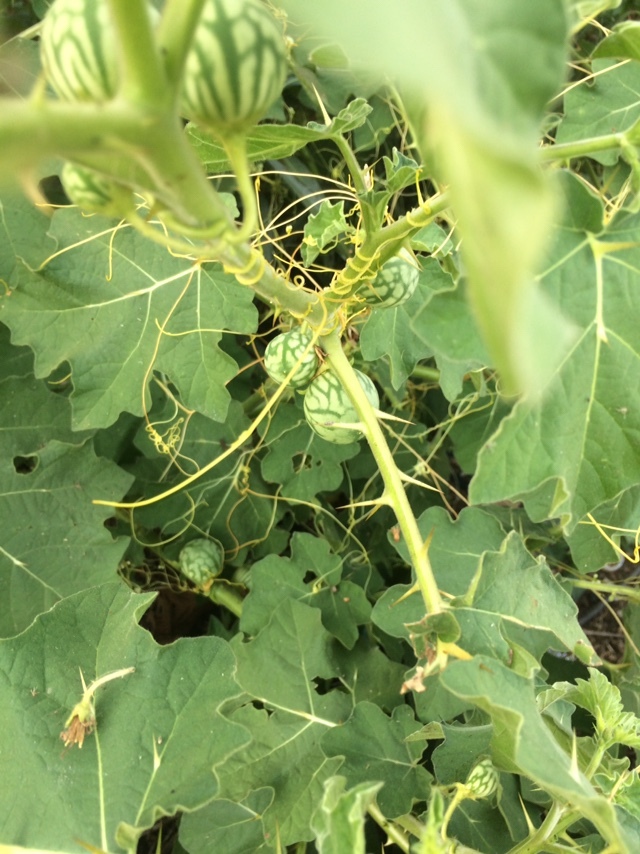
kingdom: Plantae
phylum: Tracheophyta
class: Magnoliopsida
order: Solanales
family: Solanaceae
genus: Solanum
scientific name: Solanum viarum
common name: Tropical soda apple
